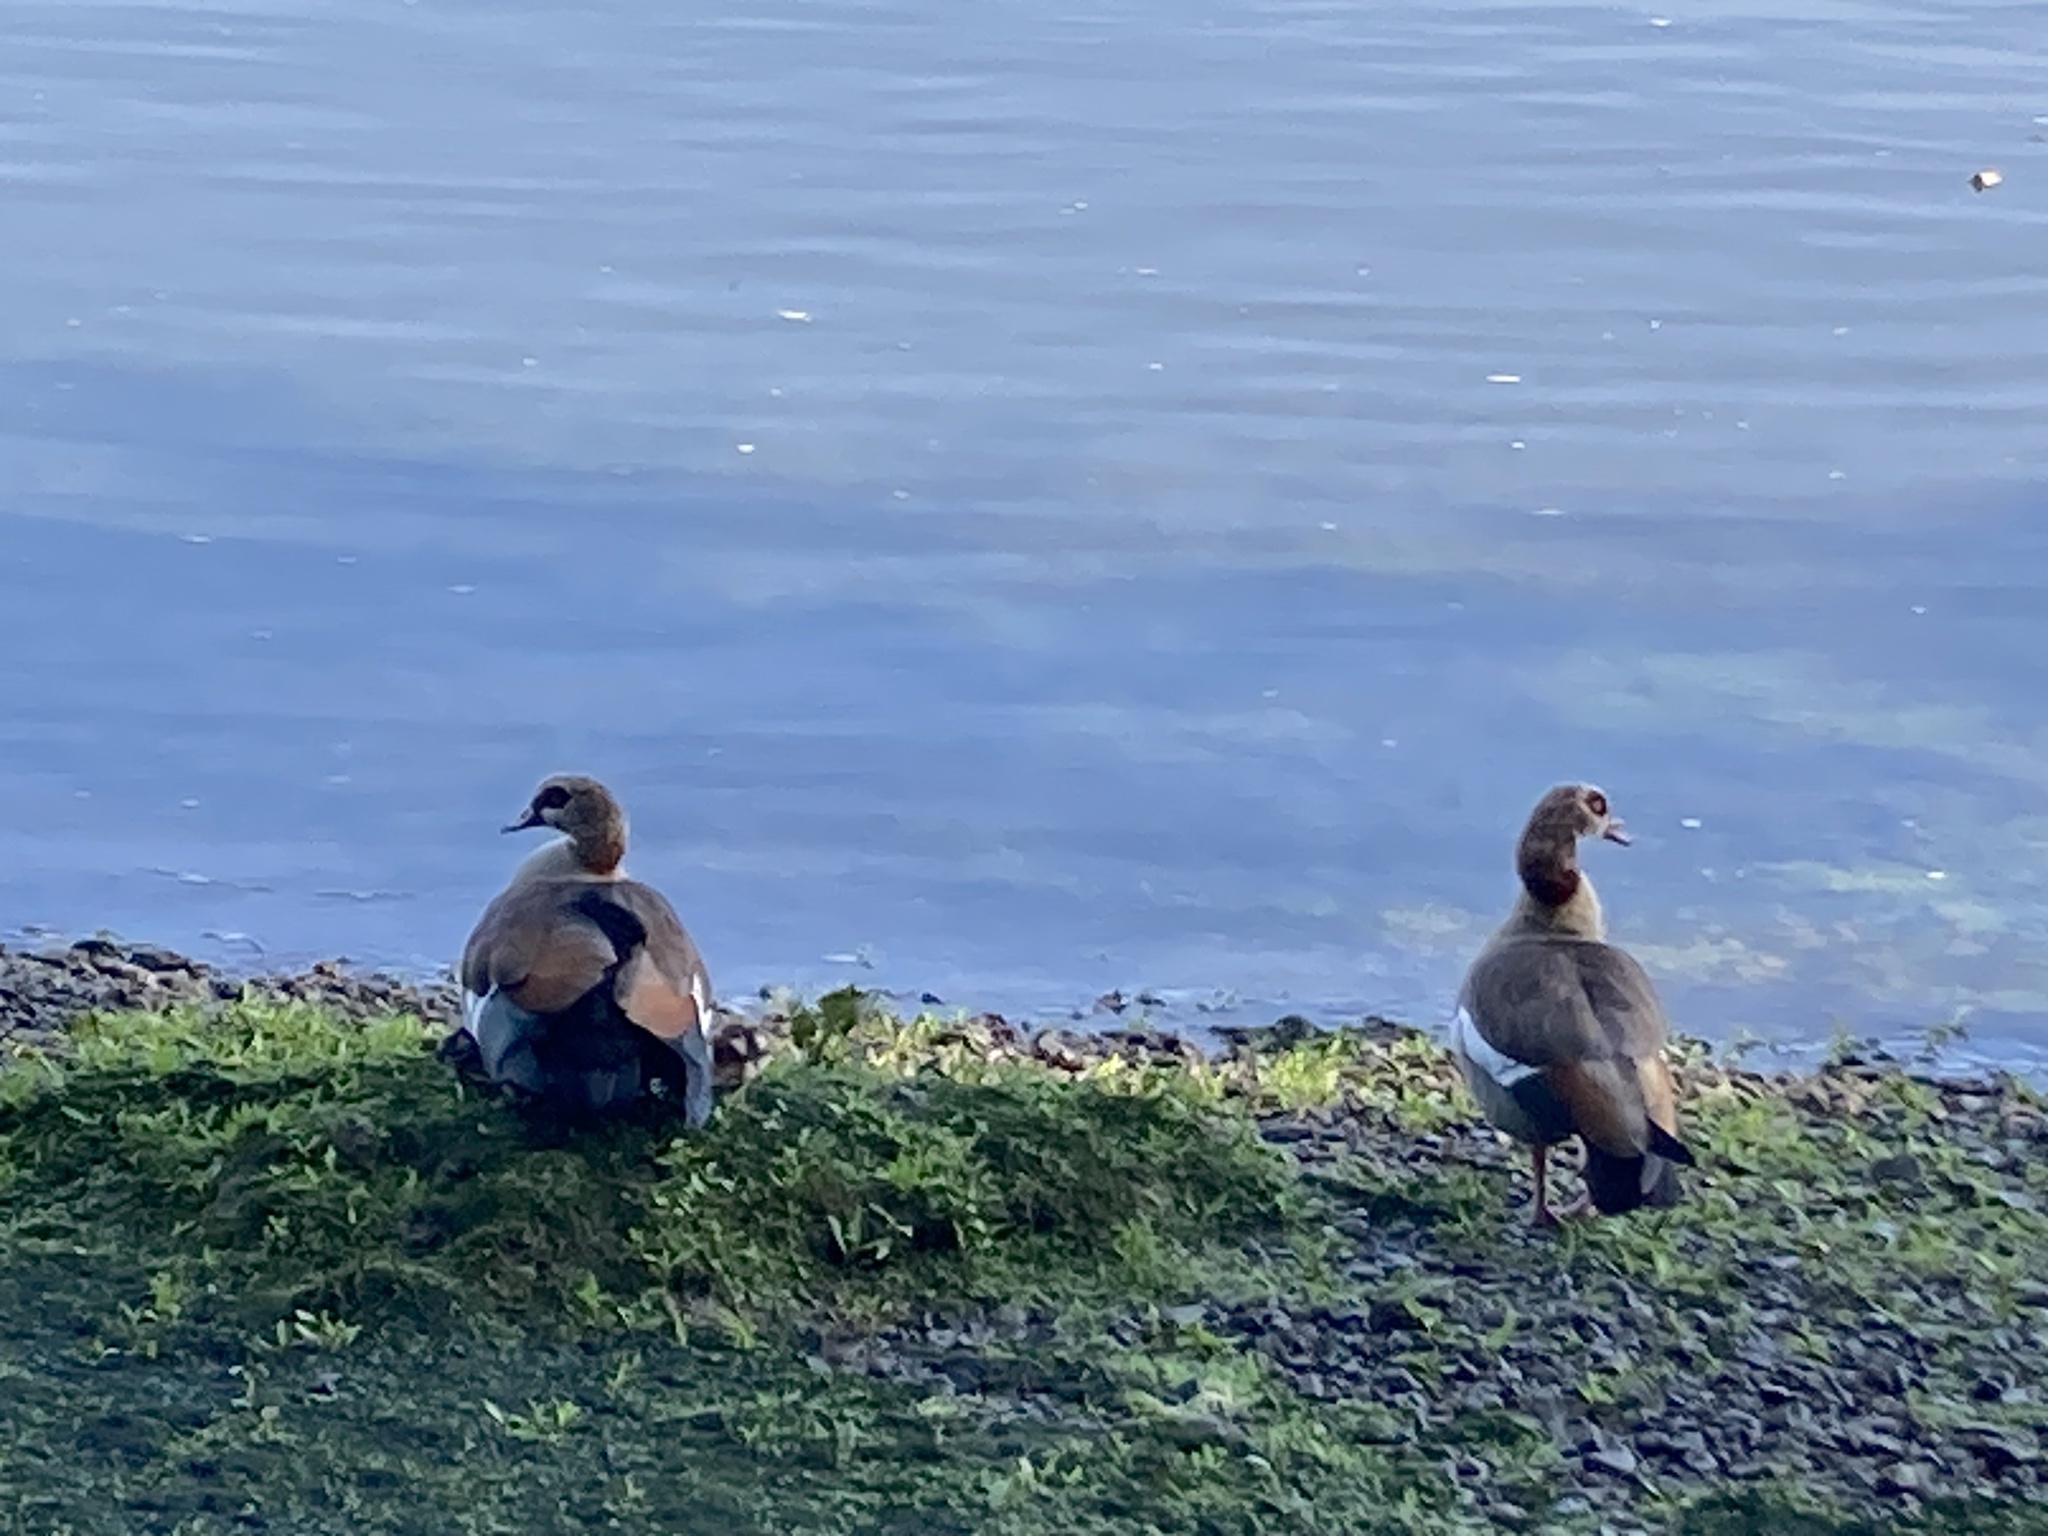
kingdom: Animalia
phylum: Chordata
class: Aves
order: Anseriformes
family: Anatidae
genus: Alopochen
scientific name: Alopochen aegyptiaca
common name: Egyptian goose
